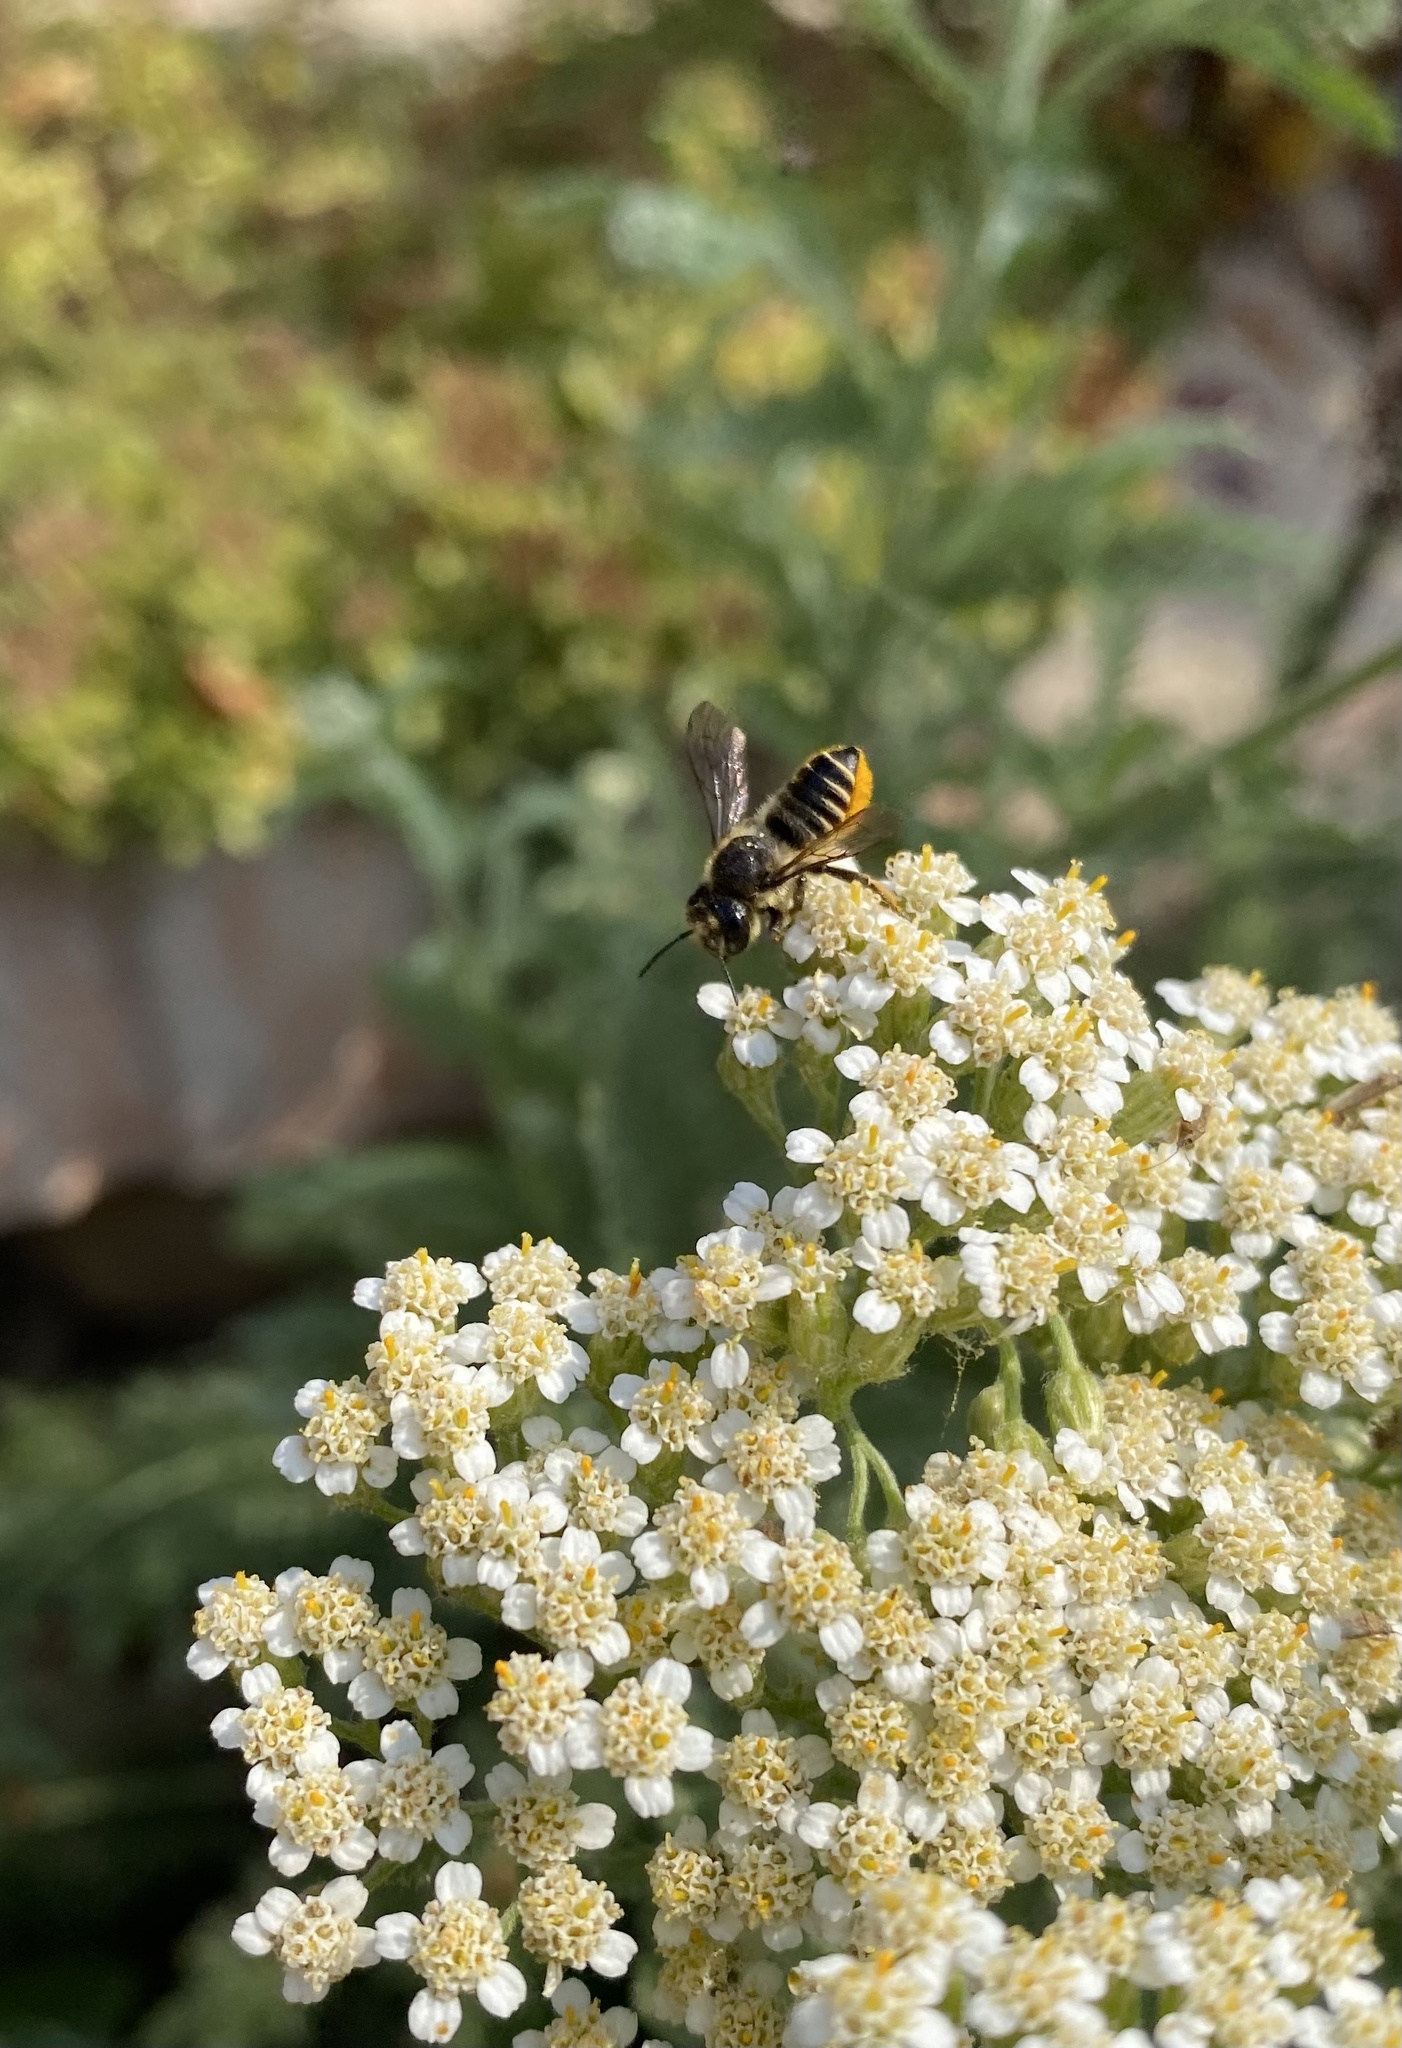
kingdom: Animalia
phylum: Arthropoda
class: Insecta
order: Hymenoptera
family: Megachilidae
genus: Megachile
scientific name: Megachile
